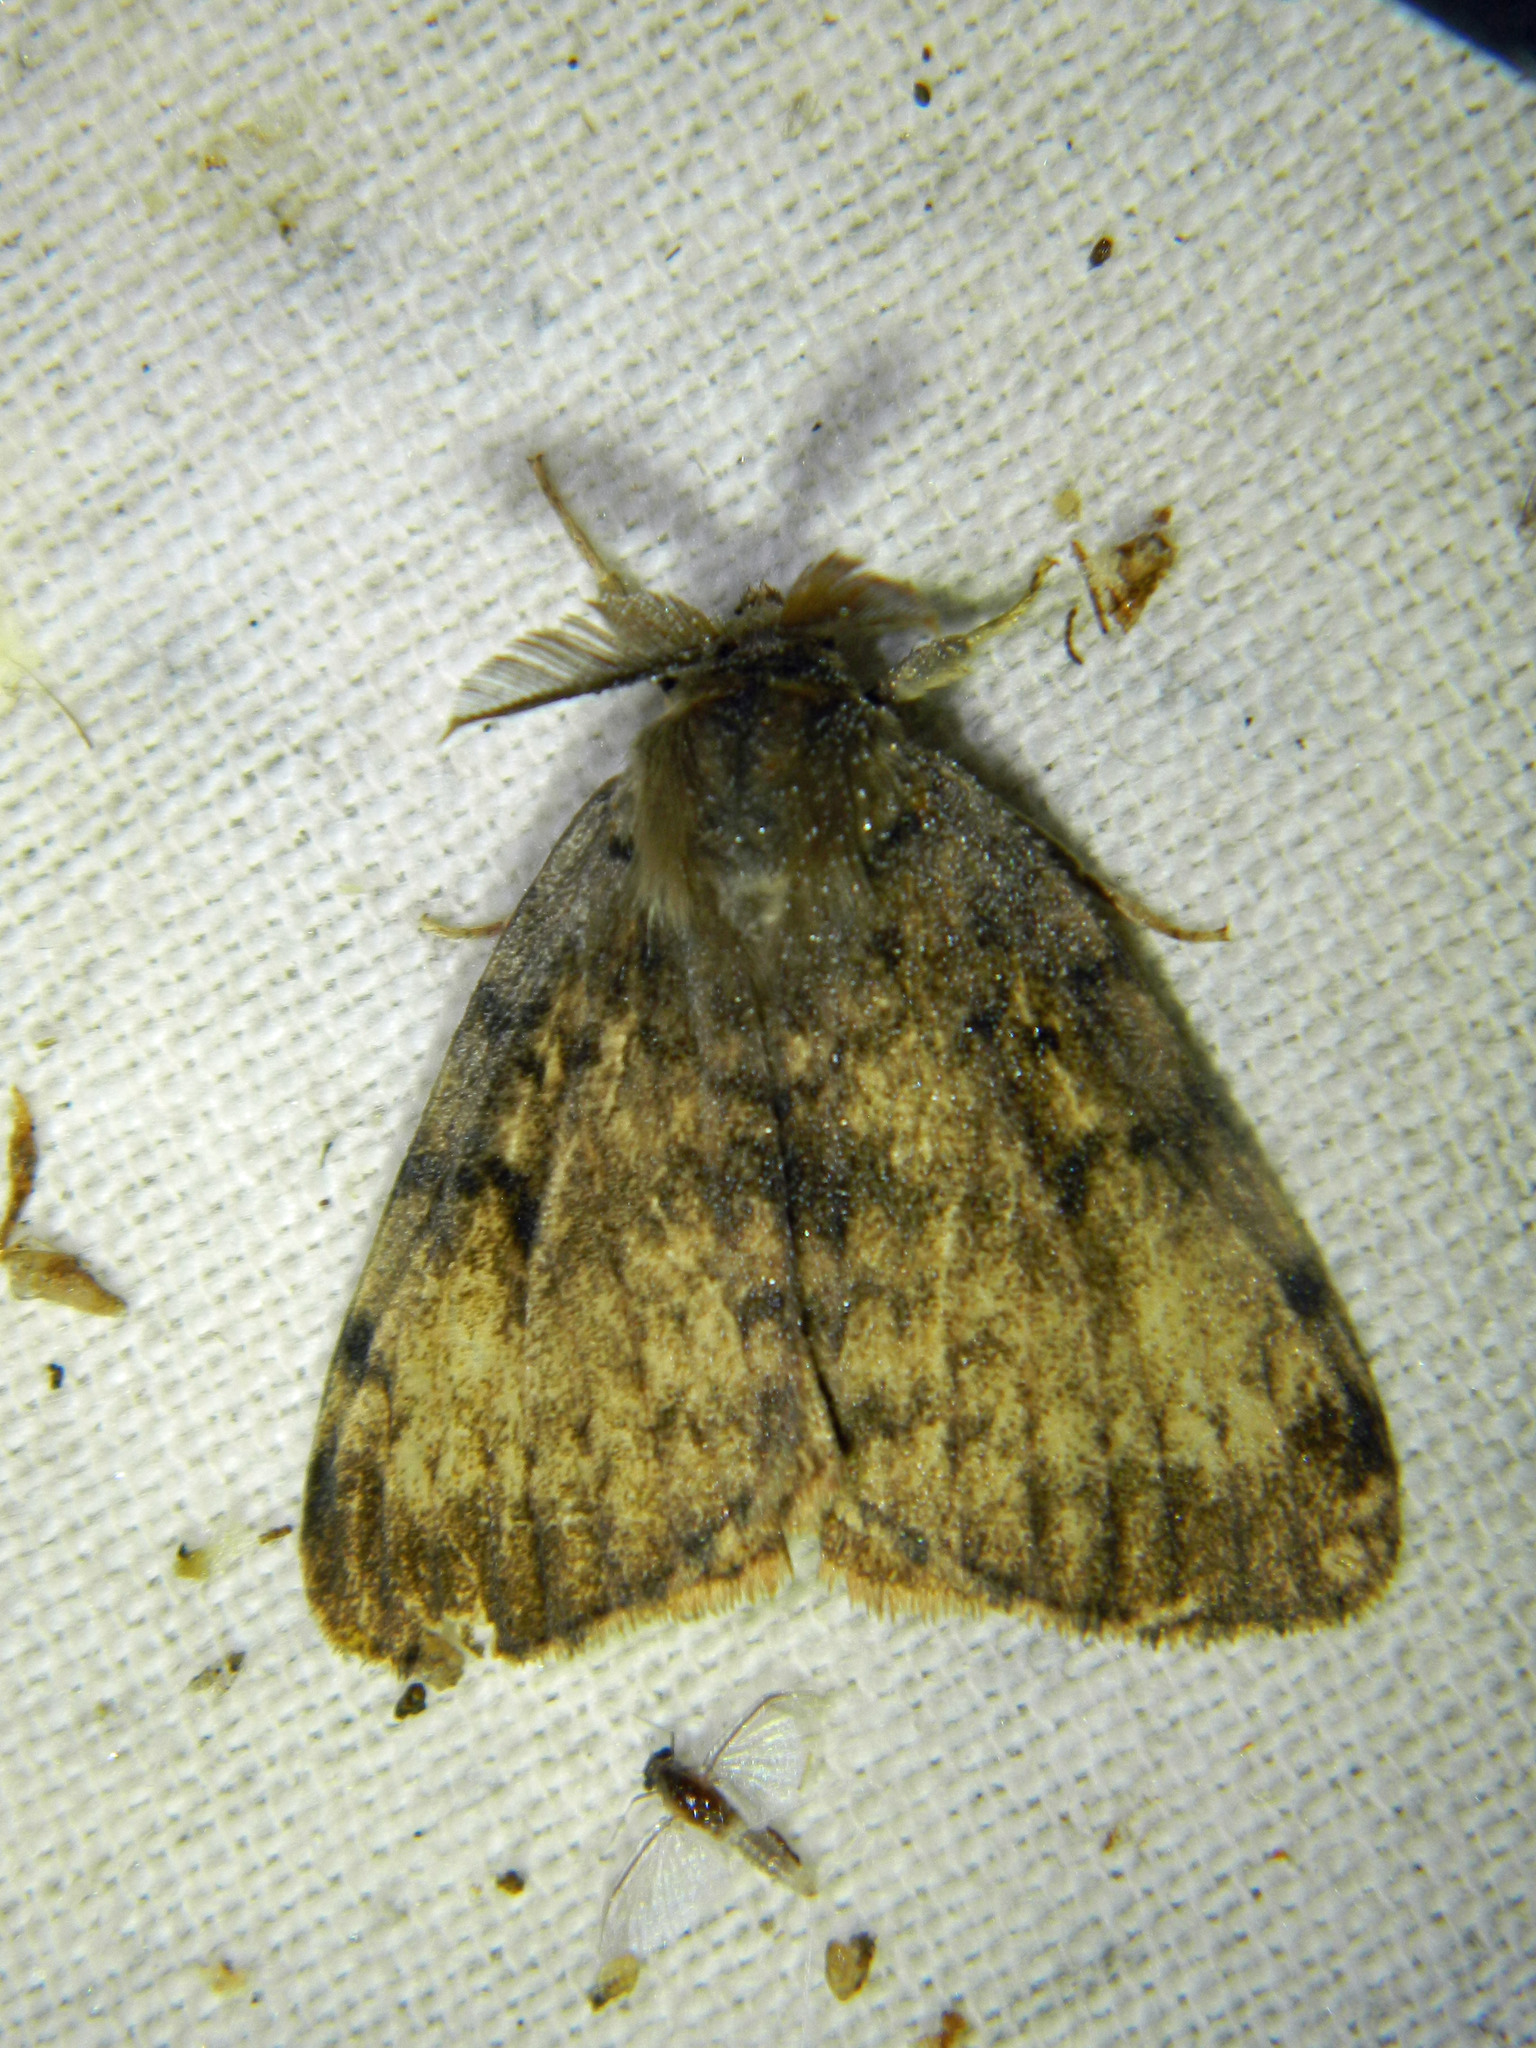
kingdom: Animalia
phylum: Arthropoda
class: Insecta
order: Lepidoptera
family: Erebidae
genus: Lymantria
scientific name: Lymantria dispar
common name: Gypsy moth
